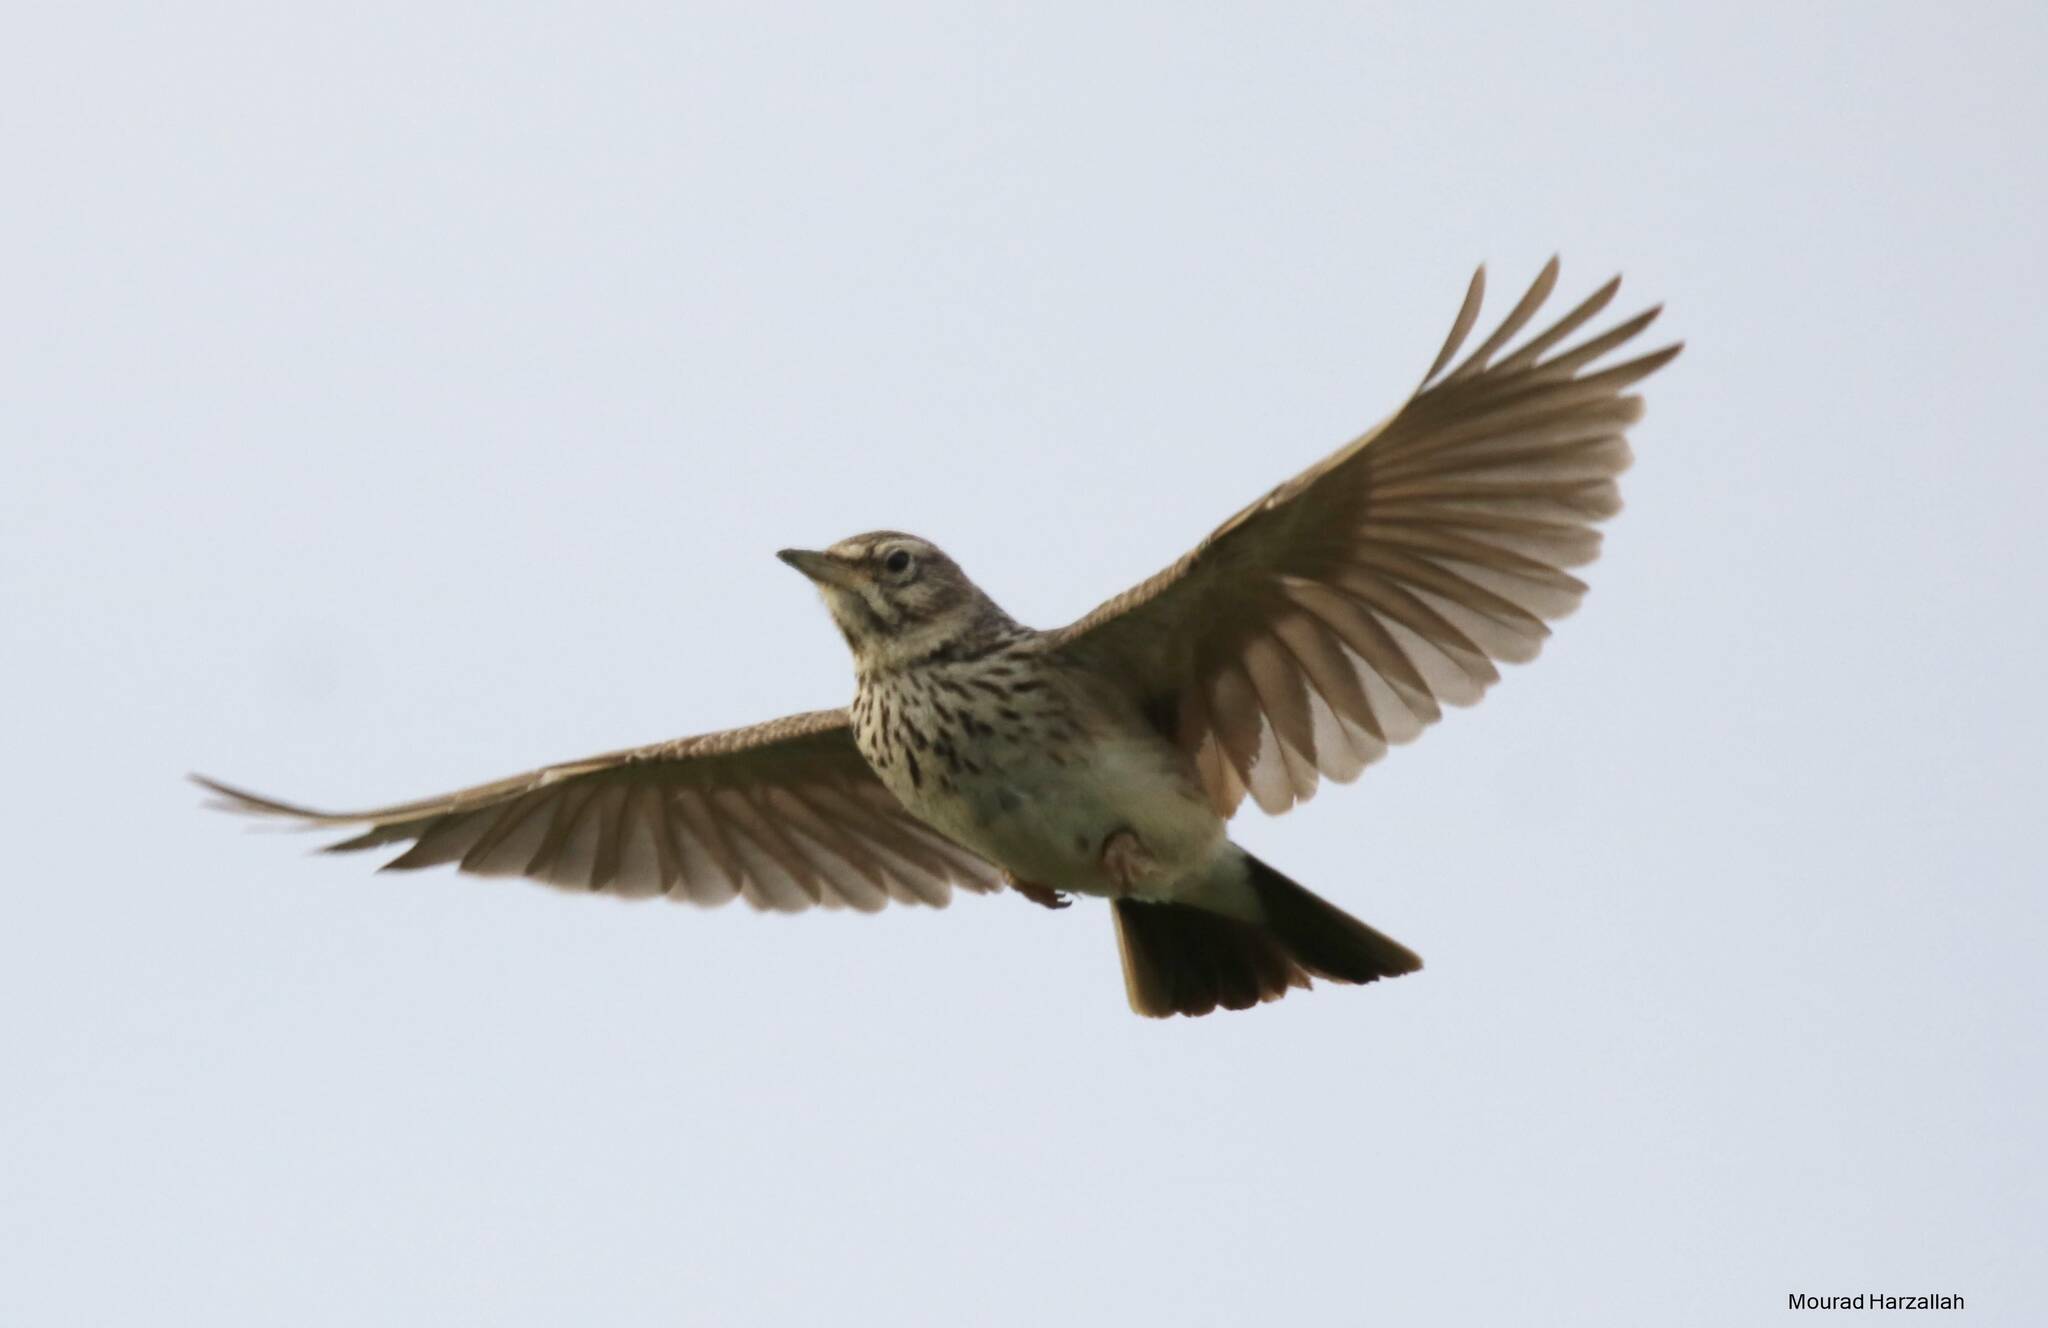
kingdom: Animalia
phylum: Chordata
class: Aves
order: Passeriformes
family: Alaudidae
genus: Galerida
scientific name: Galerida cristata
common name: Crested lark
